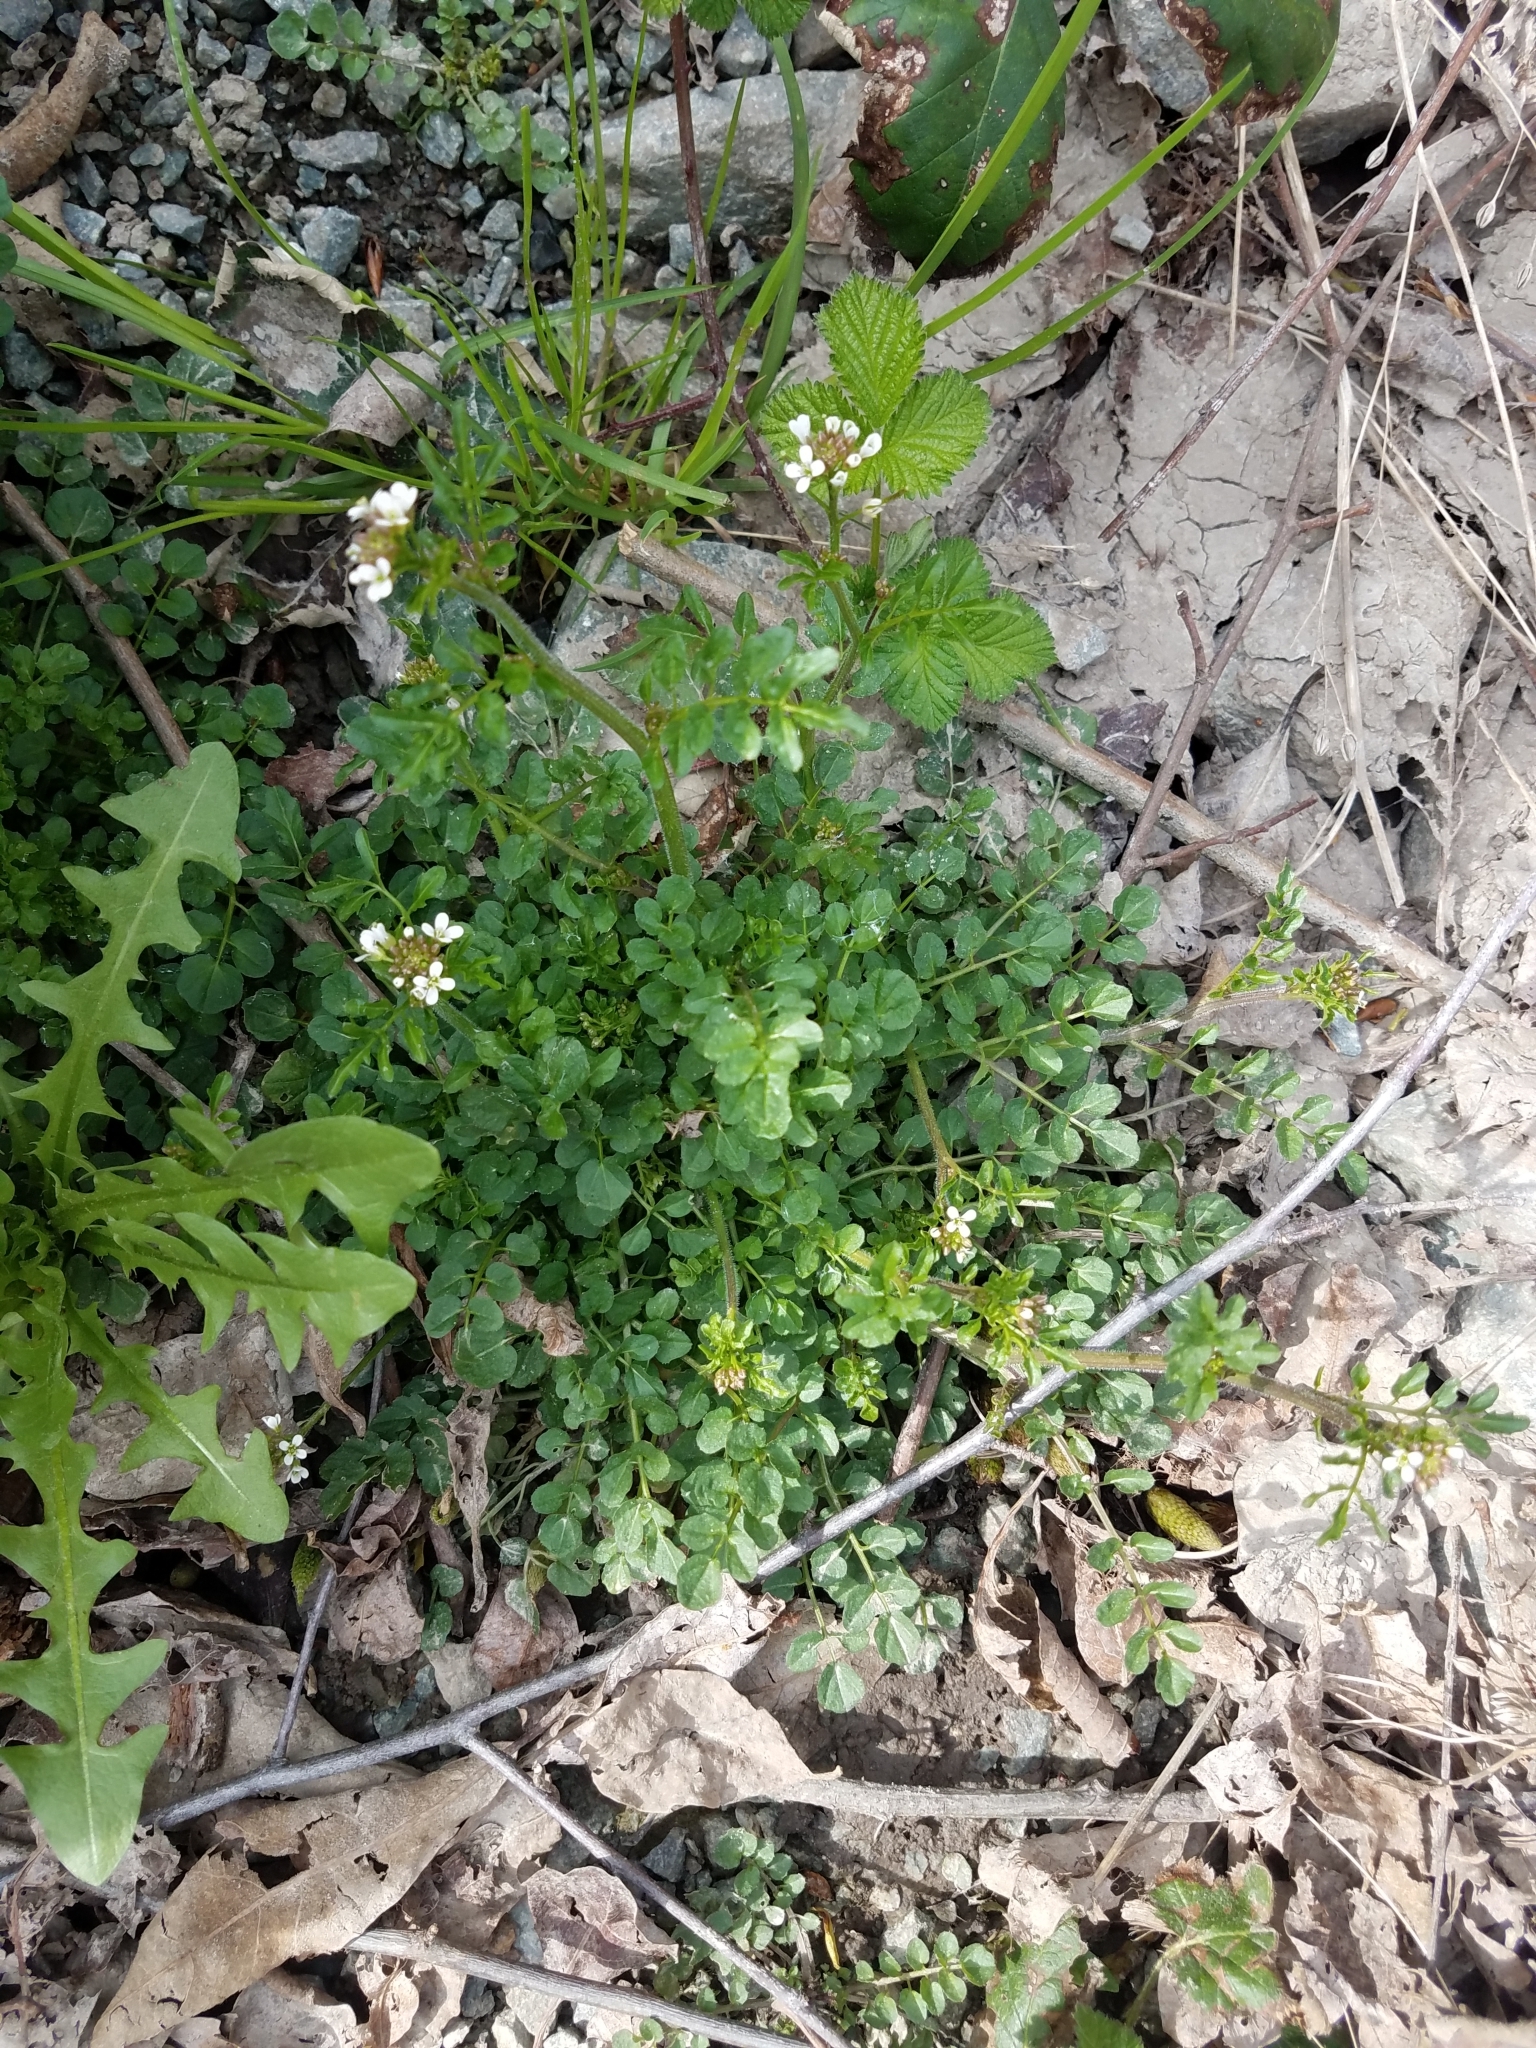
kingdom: Plantae
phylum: Tracheophyta
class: Magnoliopsida
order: Brassicales
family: Brassicaceae
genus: Cardamine
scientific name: Cardamine flexuosa
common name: Woodland bittercress
